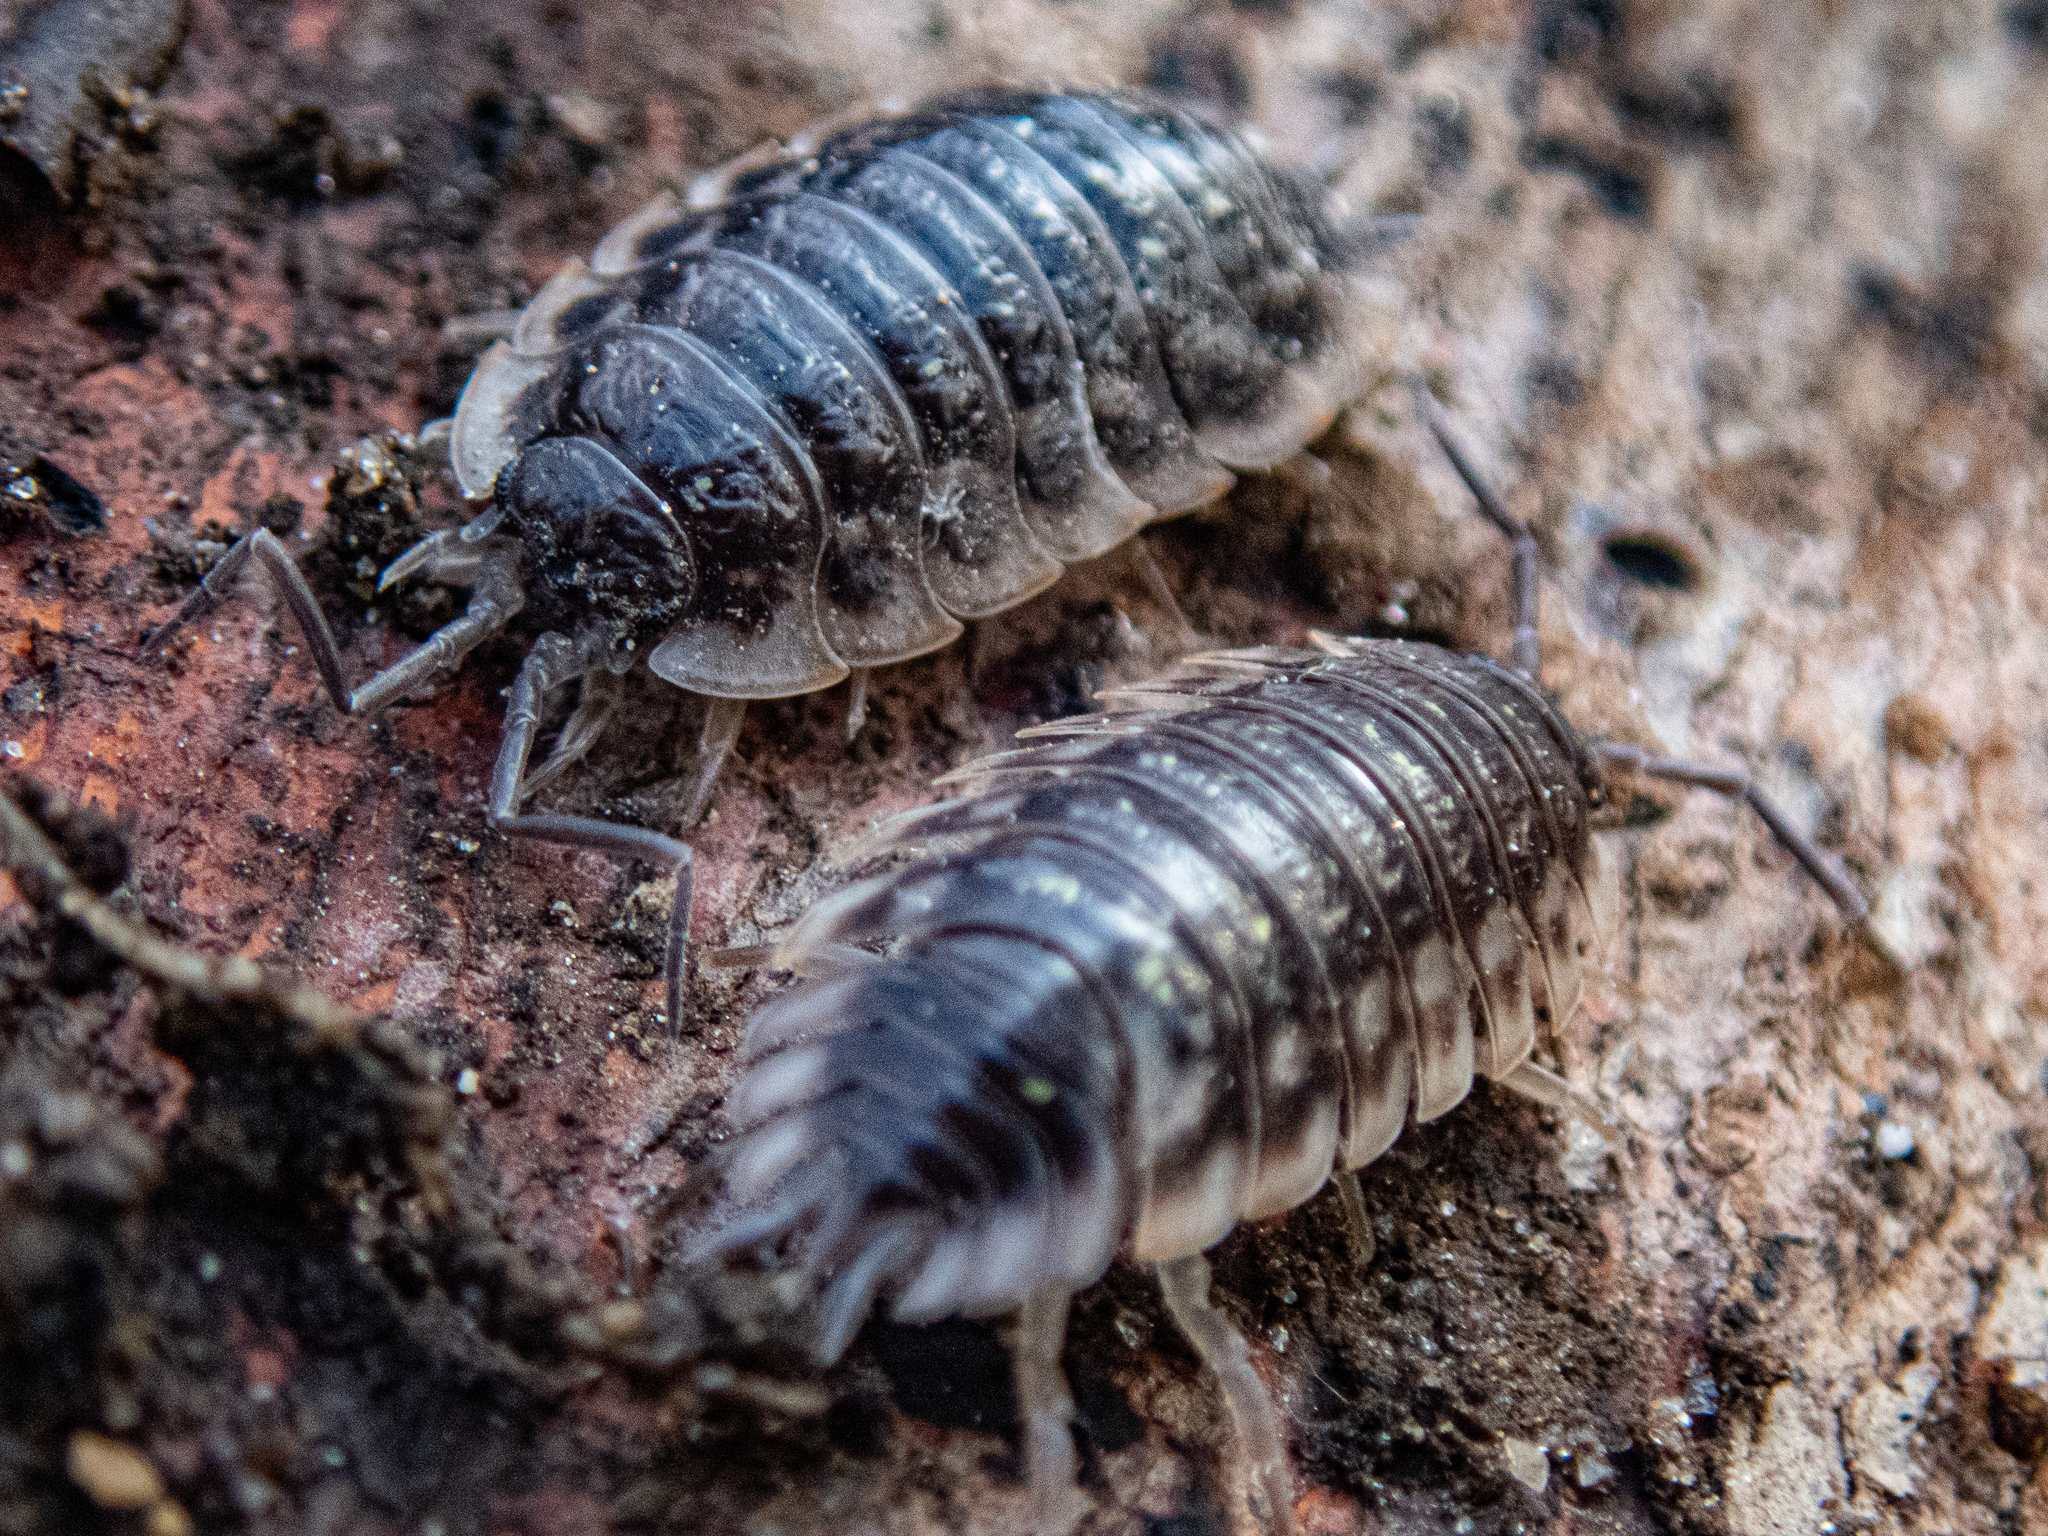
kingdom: Animalia
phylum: Arthropoda
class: Malacostraca
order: Isopoda
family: Oniscidae
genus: Oniscus
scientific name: Oniscus asellus
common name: Common shiny woodlouse
